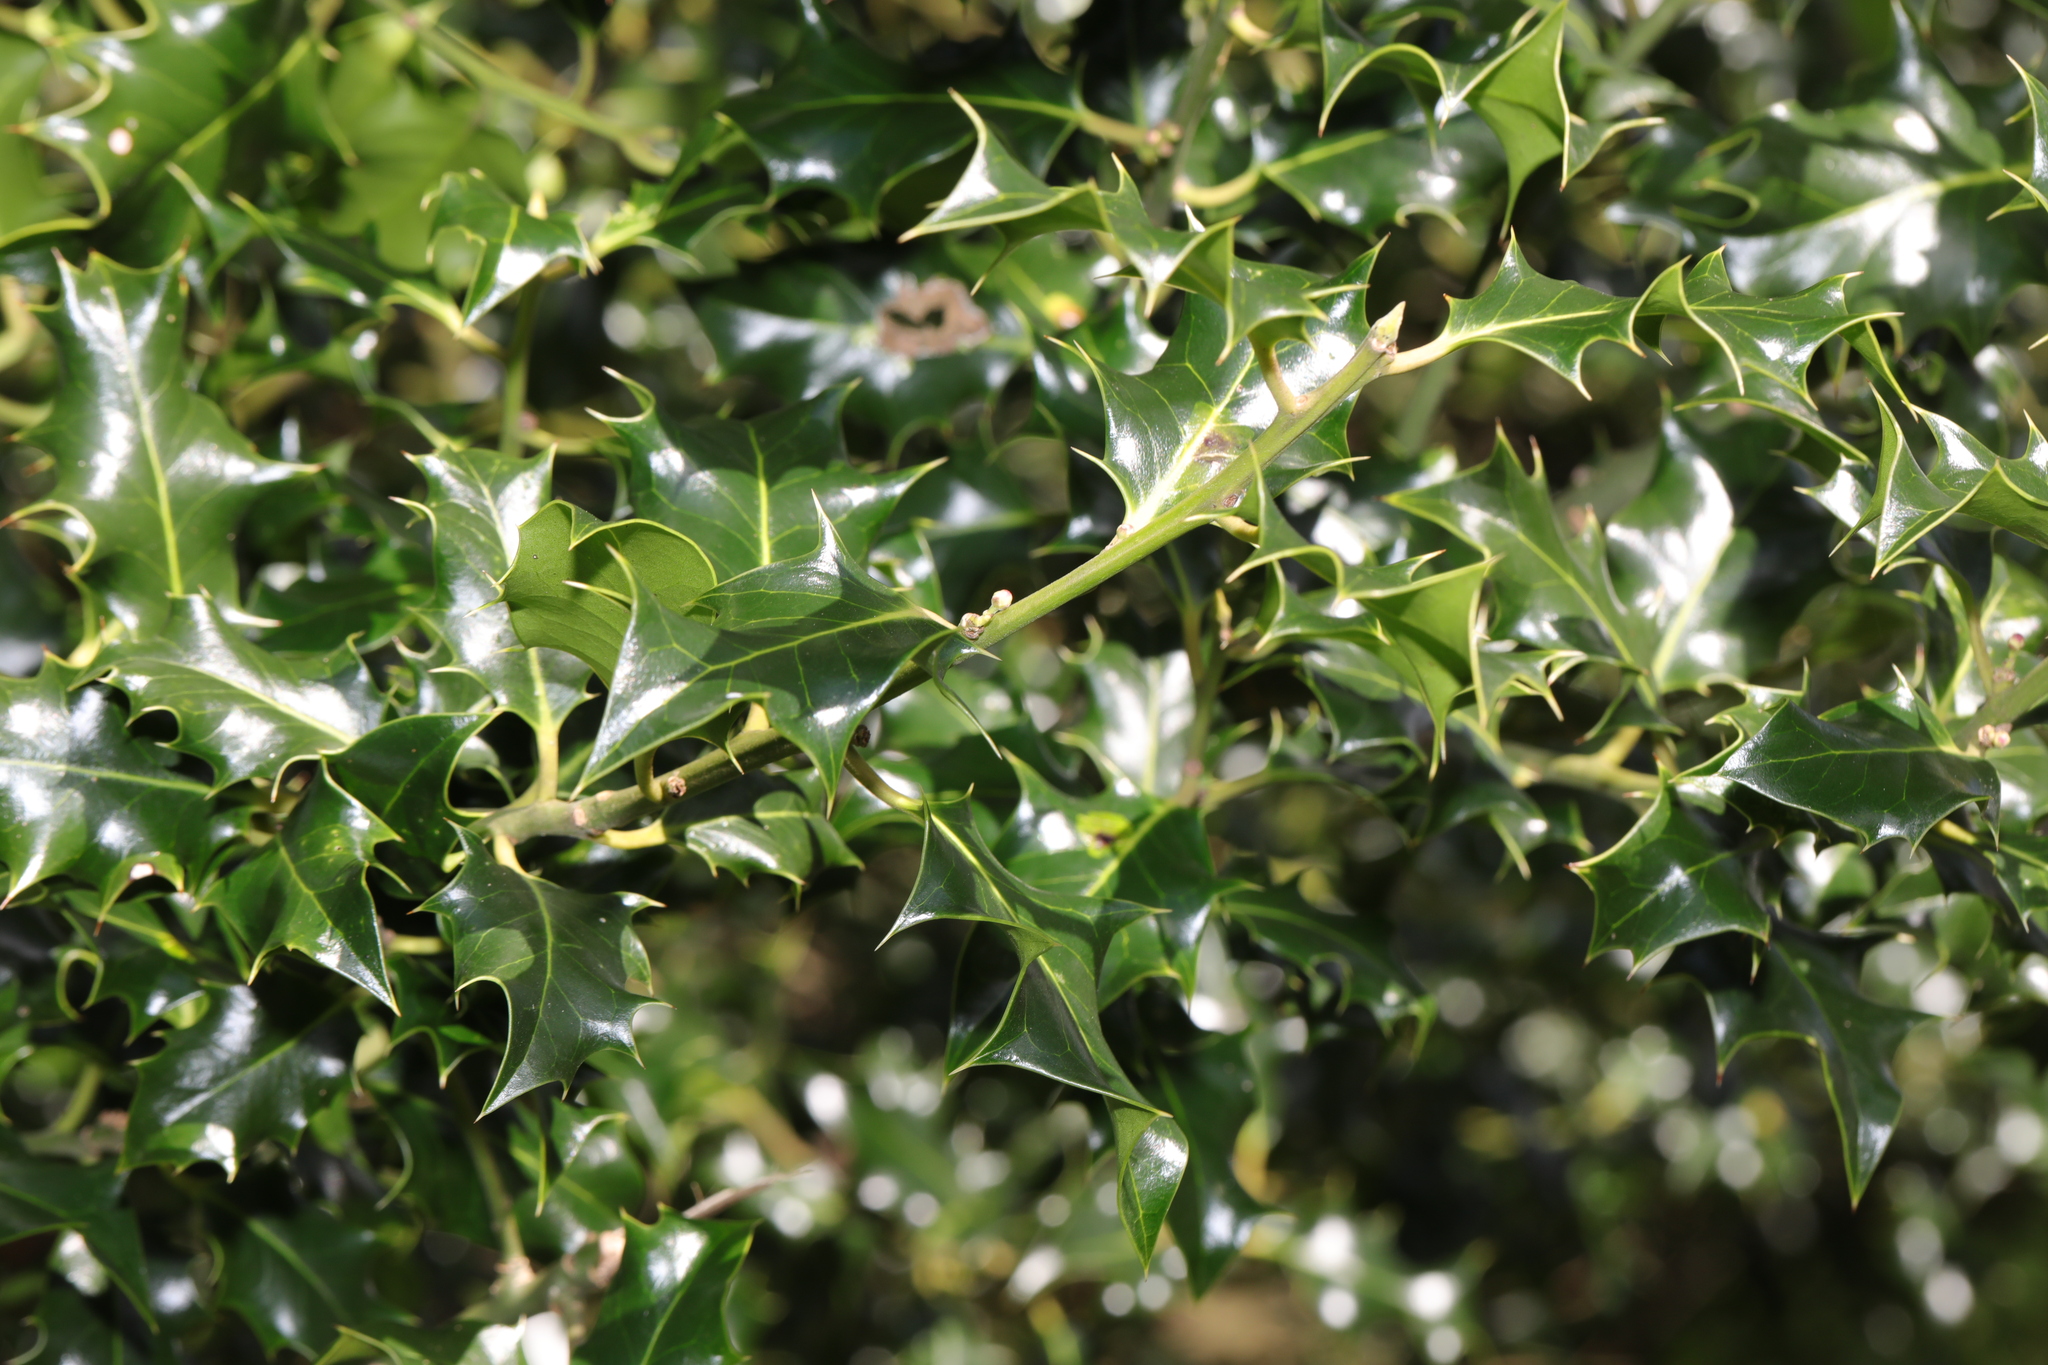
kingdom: Plantae
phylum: Tracheophyta
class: Magnoliopsida
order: Aquifoliales
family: Aquifoliaceae
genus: Ilex
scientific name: Ilex aquifolium
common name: English holly
